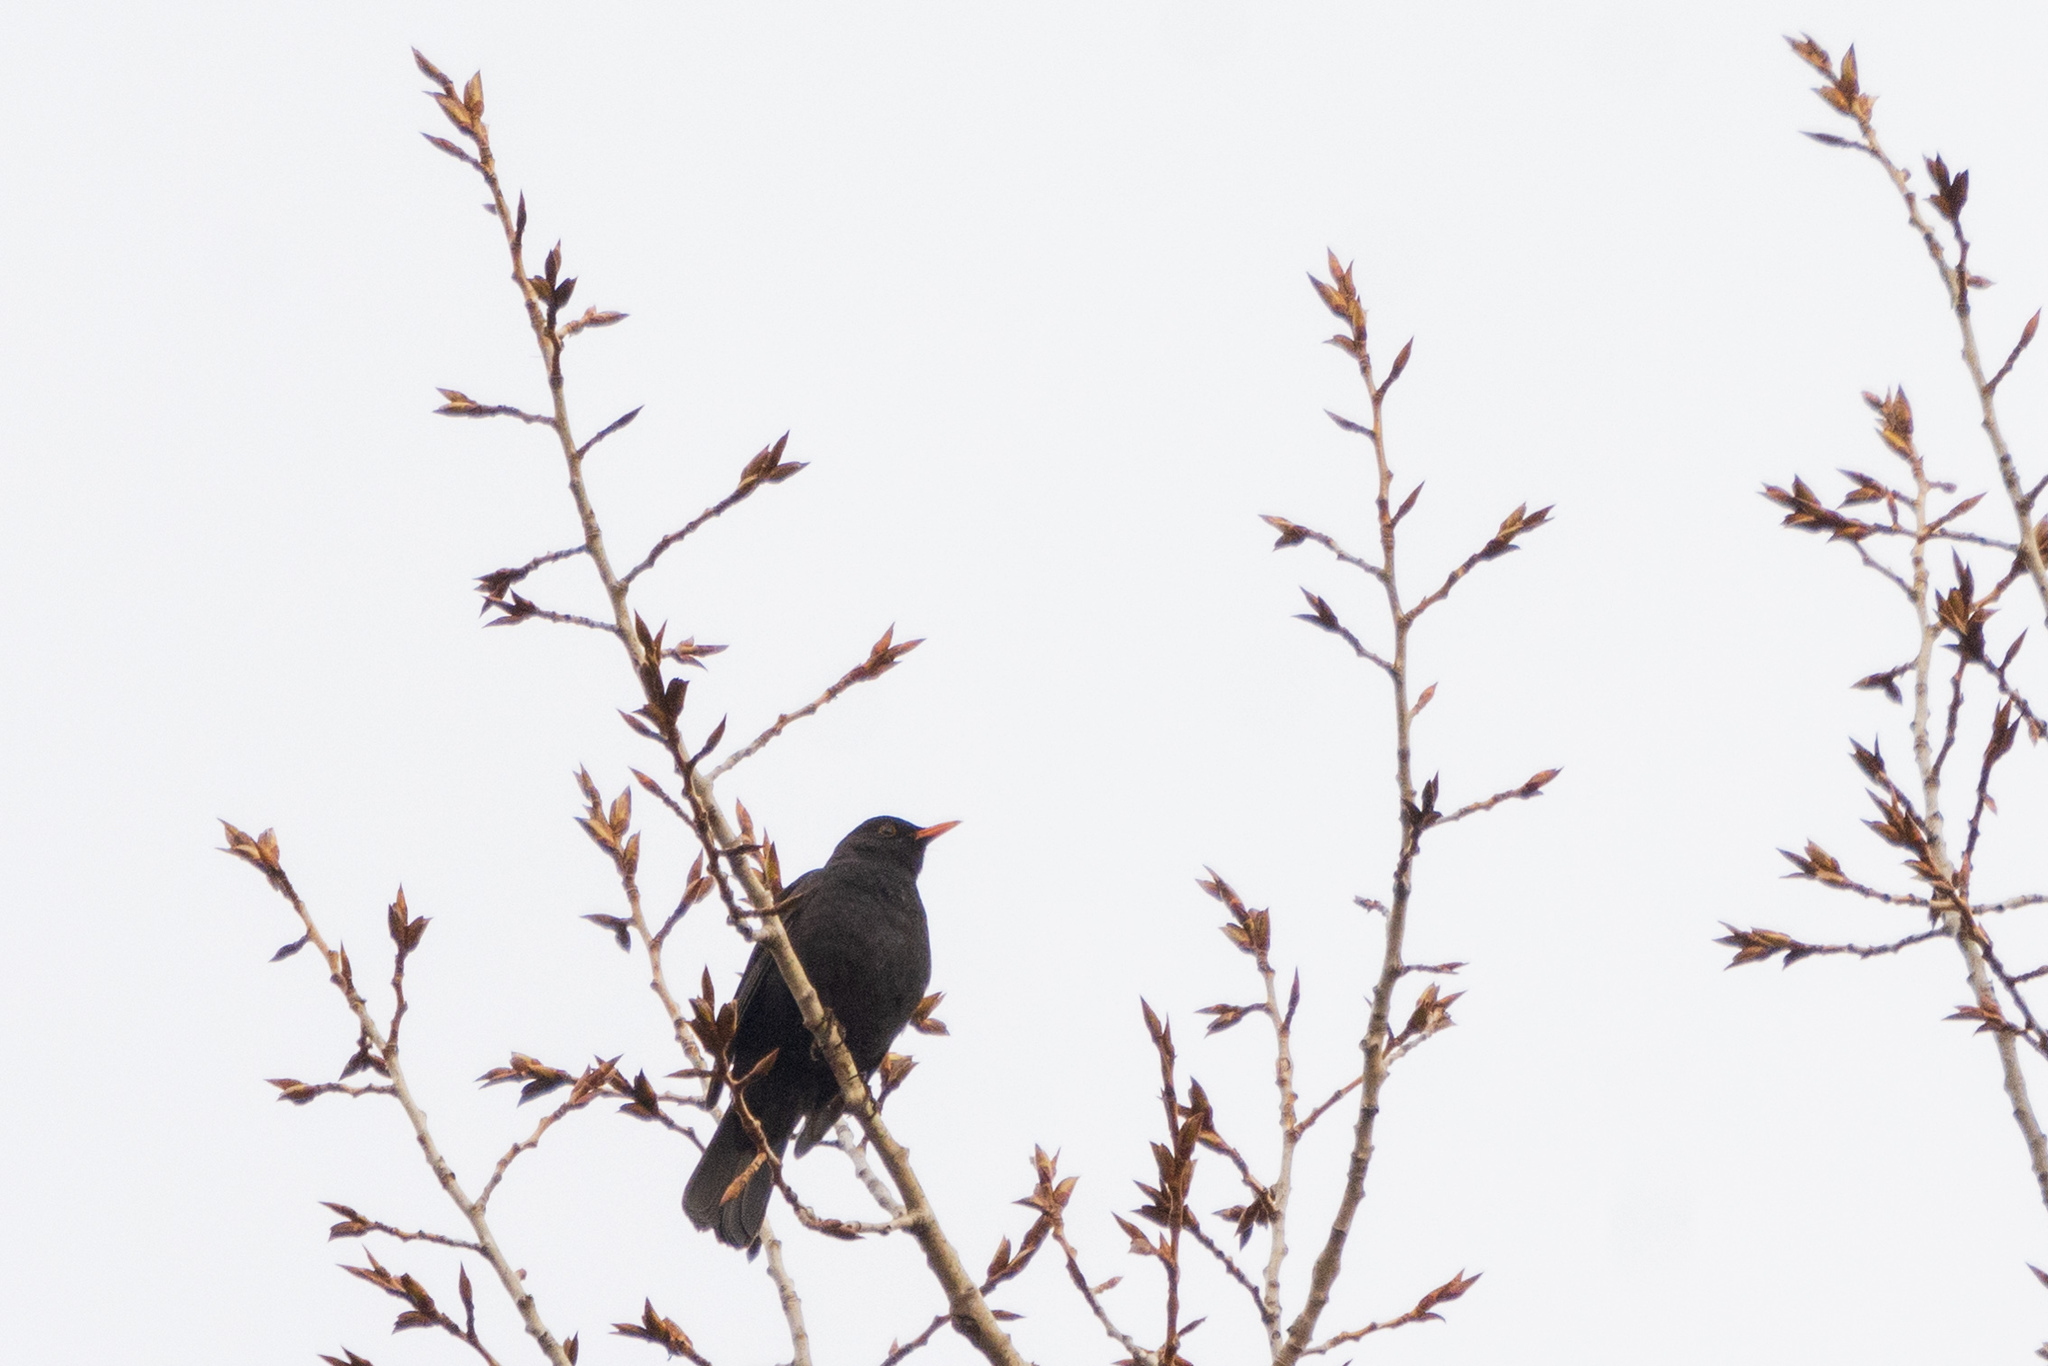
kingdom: Animalia
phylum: Chordata
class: Aves
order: Passeriformes
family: Turdidae
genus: Turdus
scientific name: Turdus merula
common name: Common blackbird
